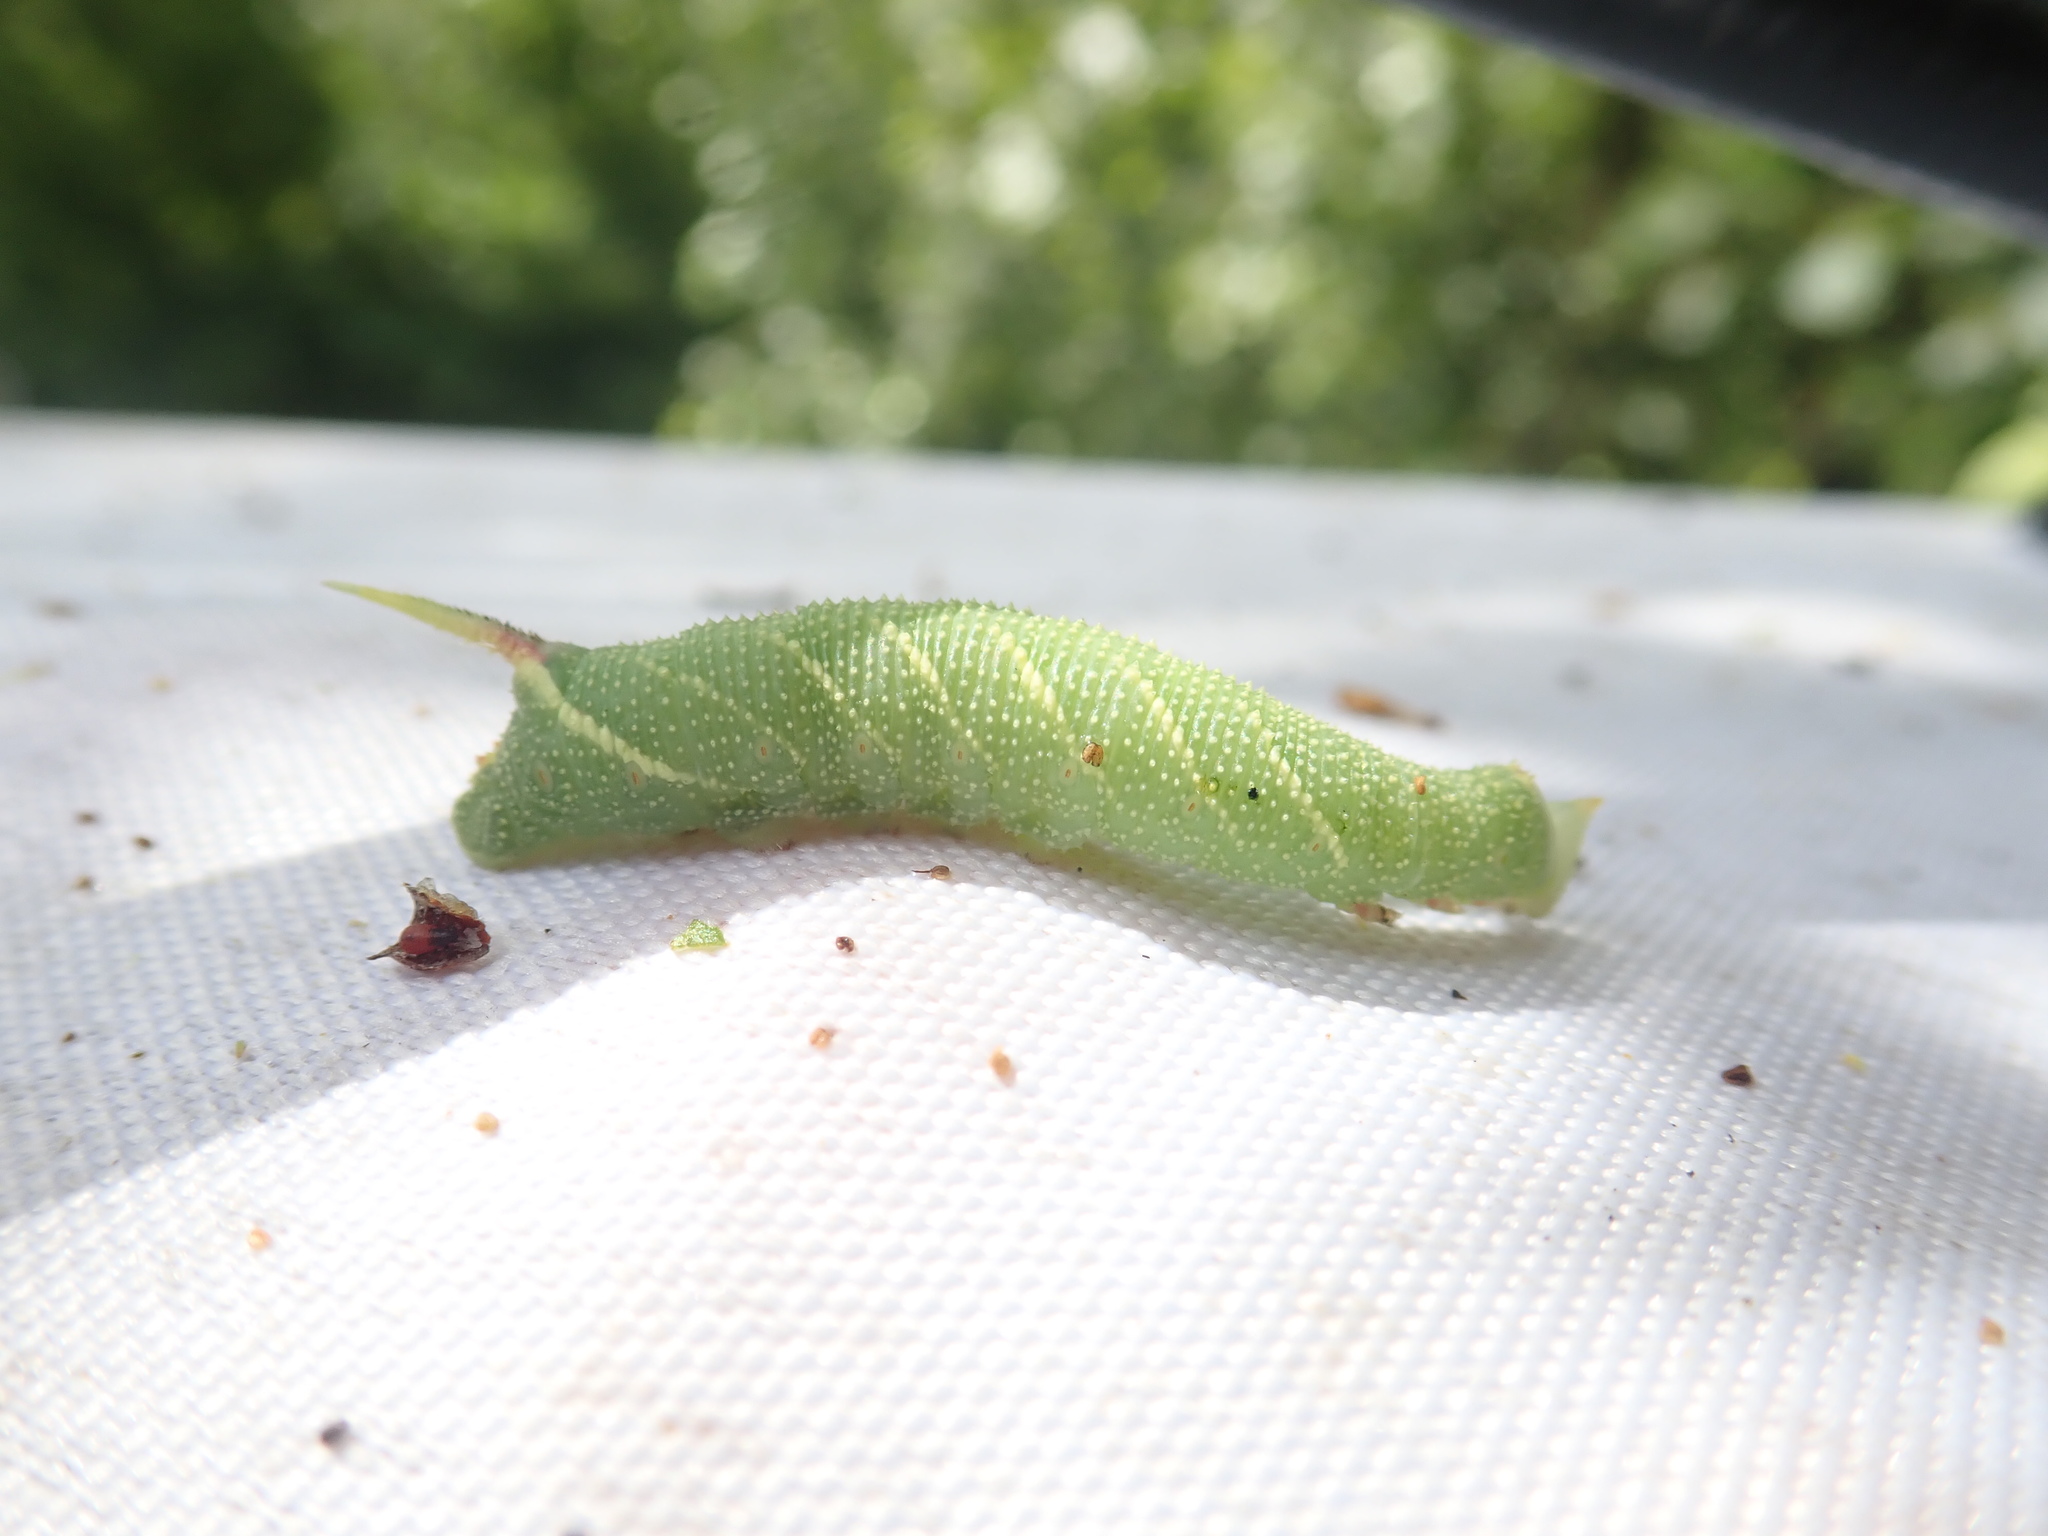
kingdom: Animalia
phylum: Arthropoda
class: Insecta
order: Lepidoptera
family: Sphingidae
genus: Mimas
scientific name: Mimas tiliae
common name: Lime hawk-moth
